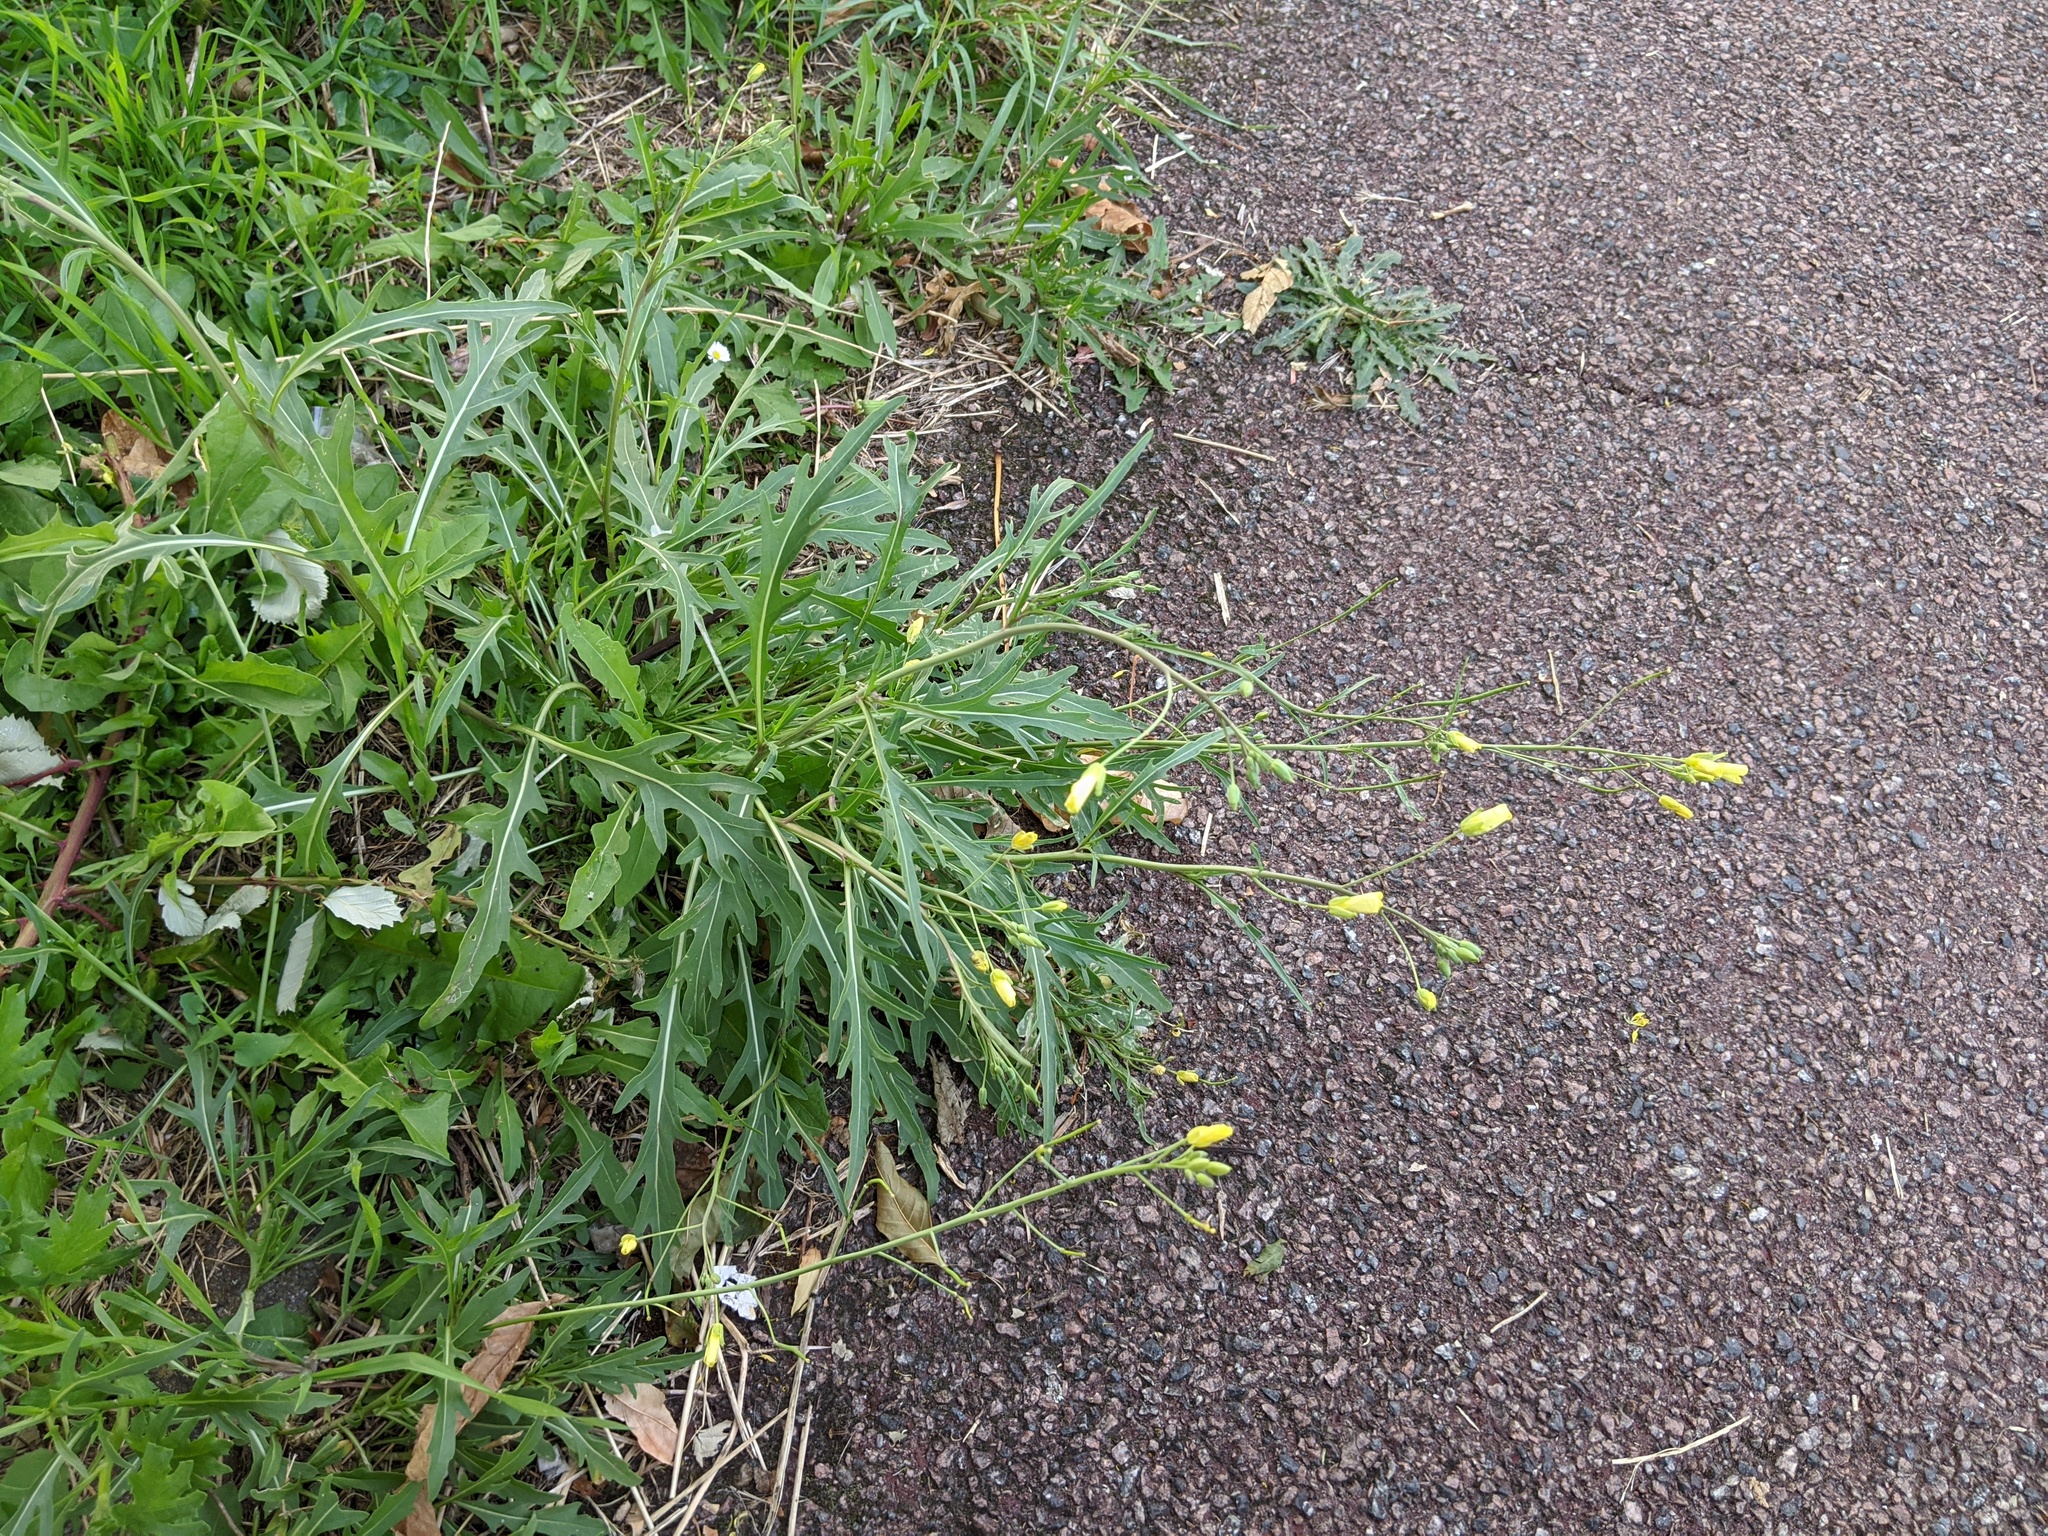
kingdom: Plantae
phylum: Tracheophyta
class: Magnoliopsida
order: Brassicales
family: Brassicaceae
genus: Diplotaxis
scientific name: Diplotaxis tenuifolia
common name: Perennial wall-rocket
